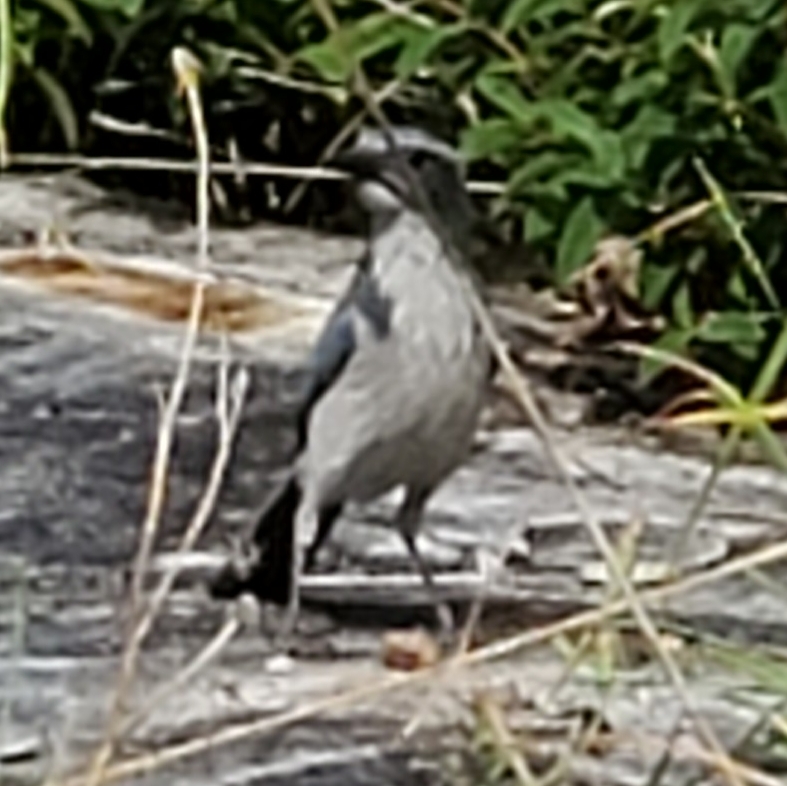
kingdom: Animalia
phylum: Chordata
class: Aves
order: Passeriformes
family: Corvidae
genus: Aphelocoma
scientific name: Aphelocoma californica
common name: California scrub-jay
